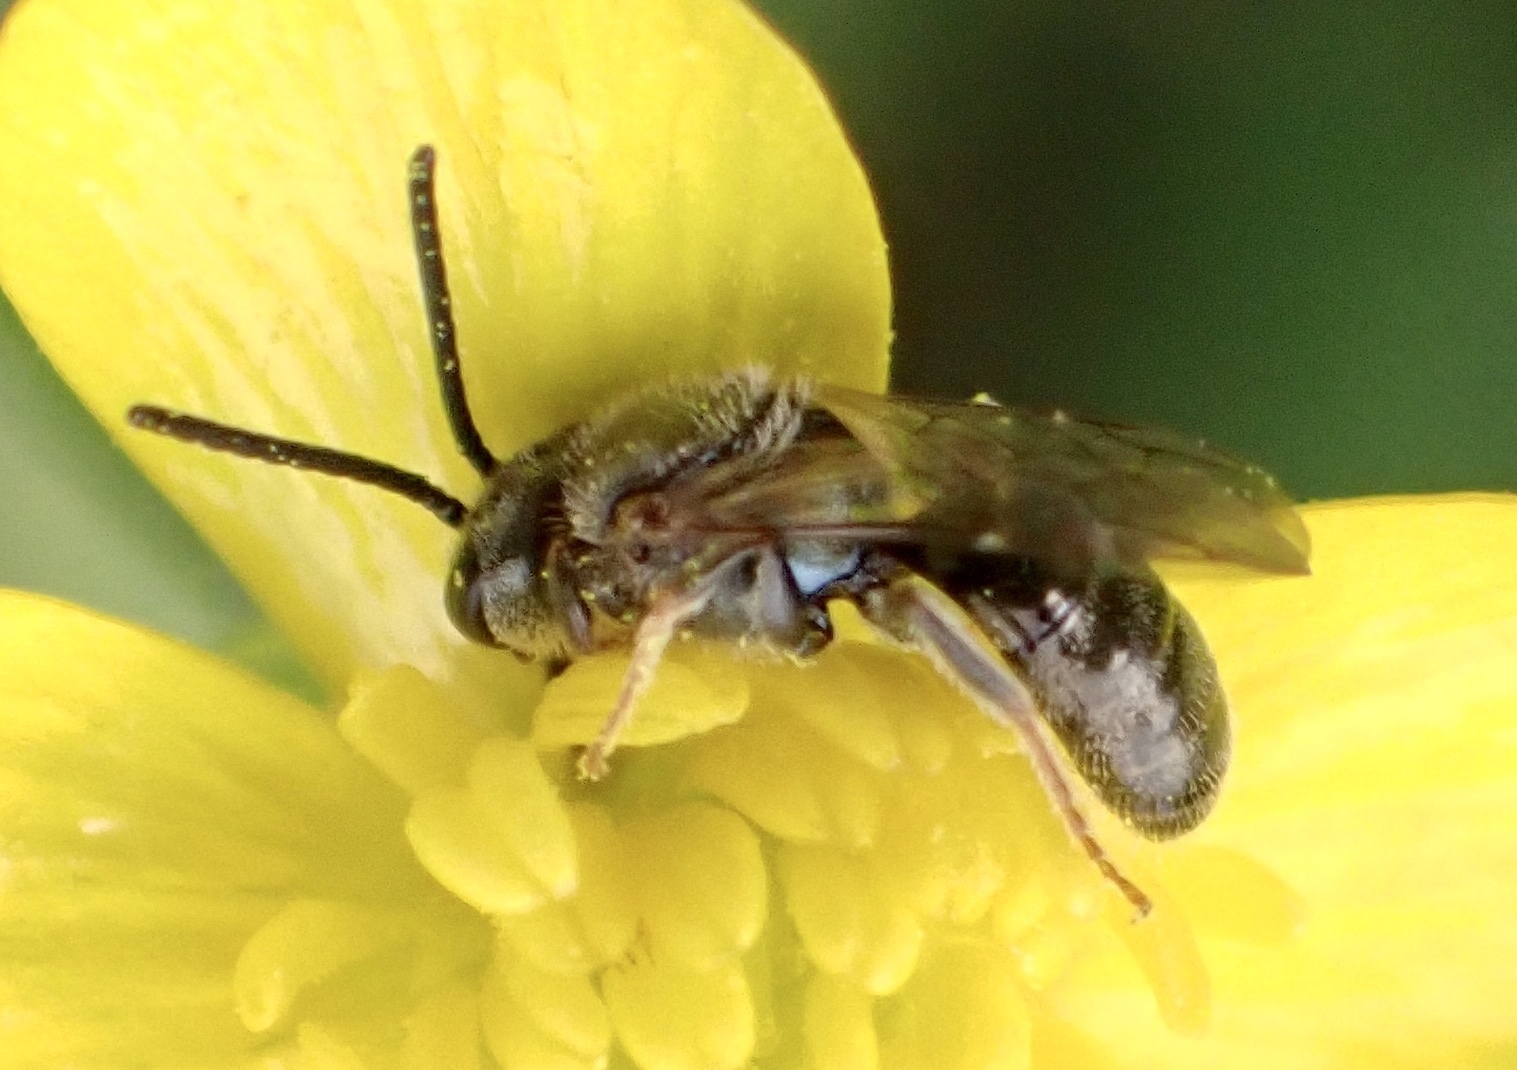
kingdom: Animalia
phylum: Arthropoda
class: Insecta
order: Hymenoptera
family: Halictidae
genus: Dialictus
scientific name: Dialictus
